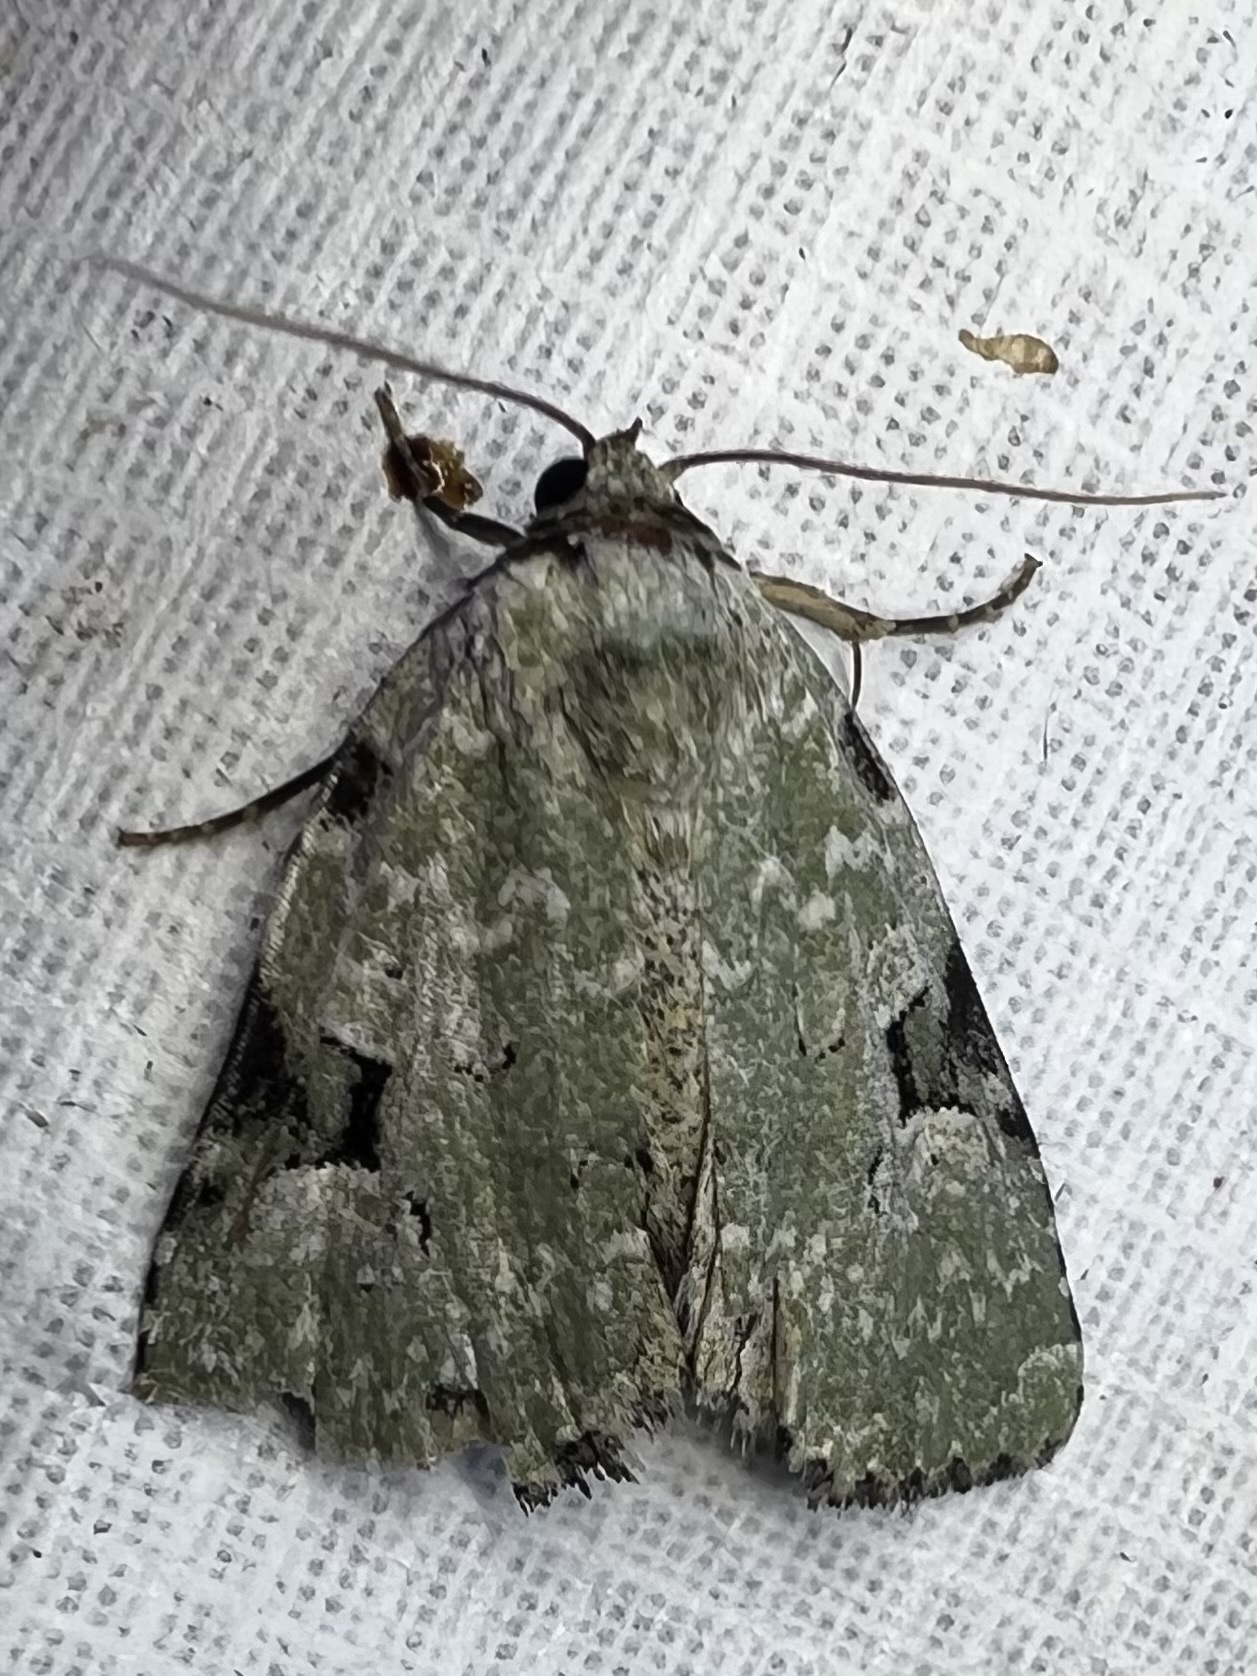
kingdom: Animalia
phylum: Arthropoda
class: Insecta
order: Lepidoptera
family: Noctuidae
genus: Leuconycta
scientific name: Leuconycta diphteroides
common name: Green leuconycta moth
